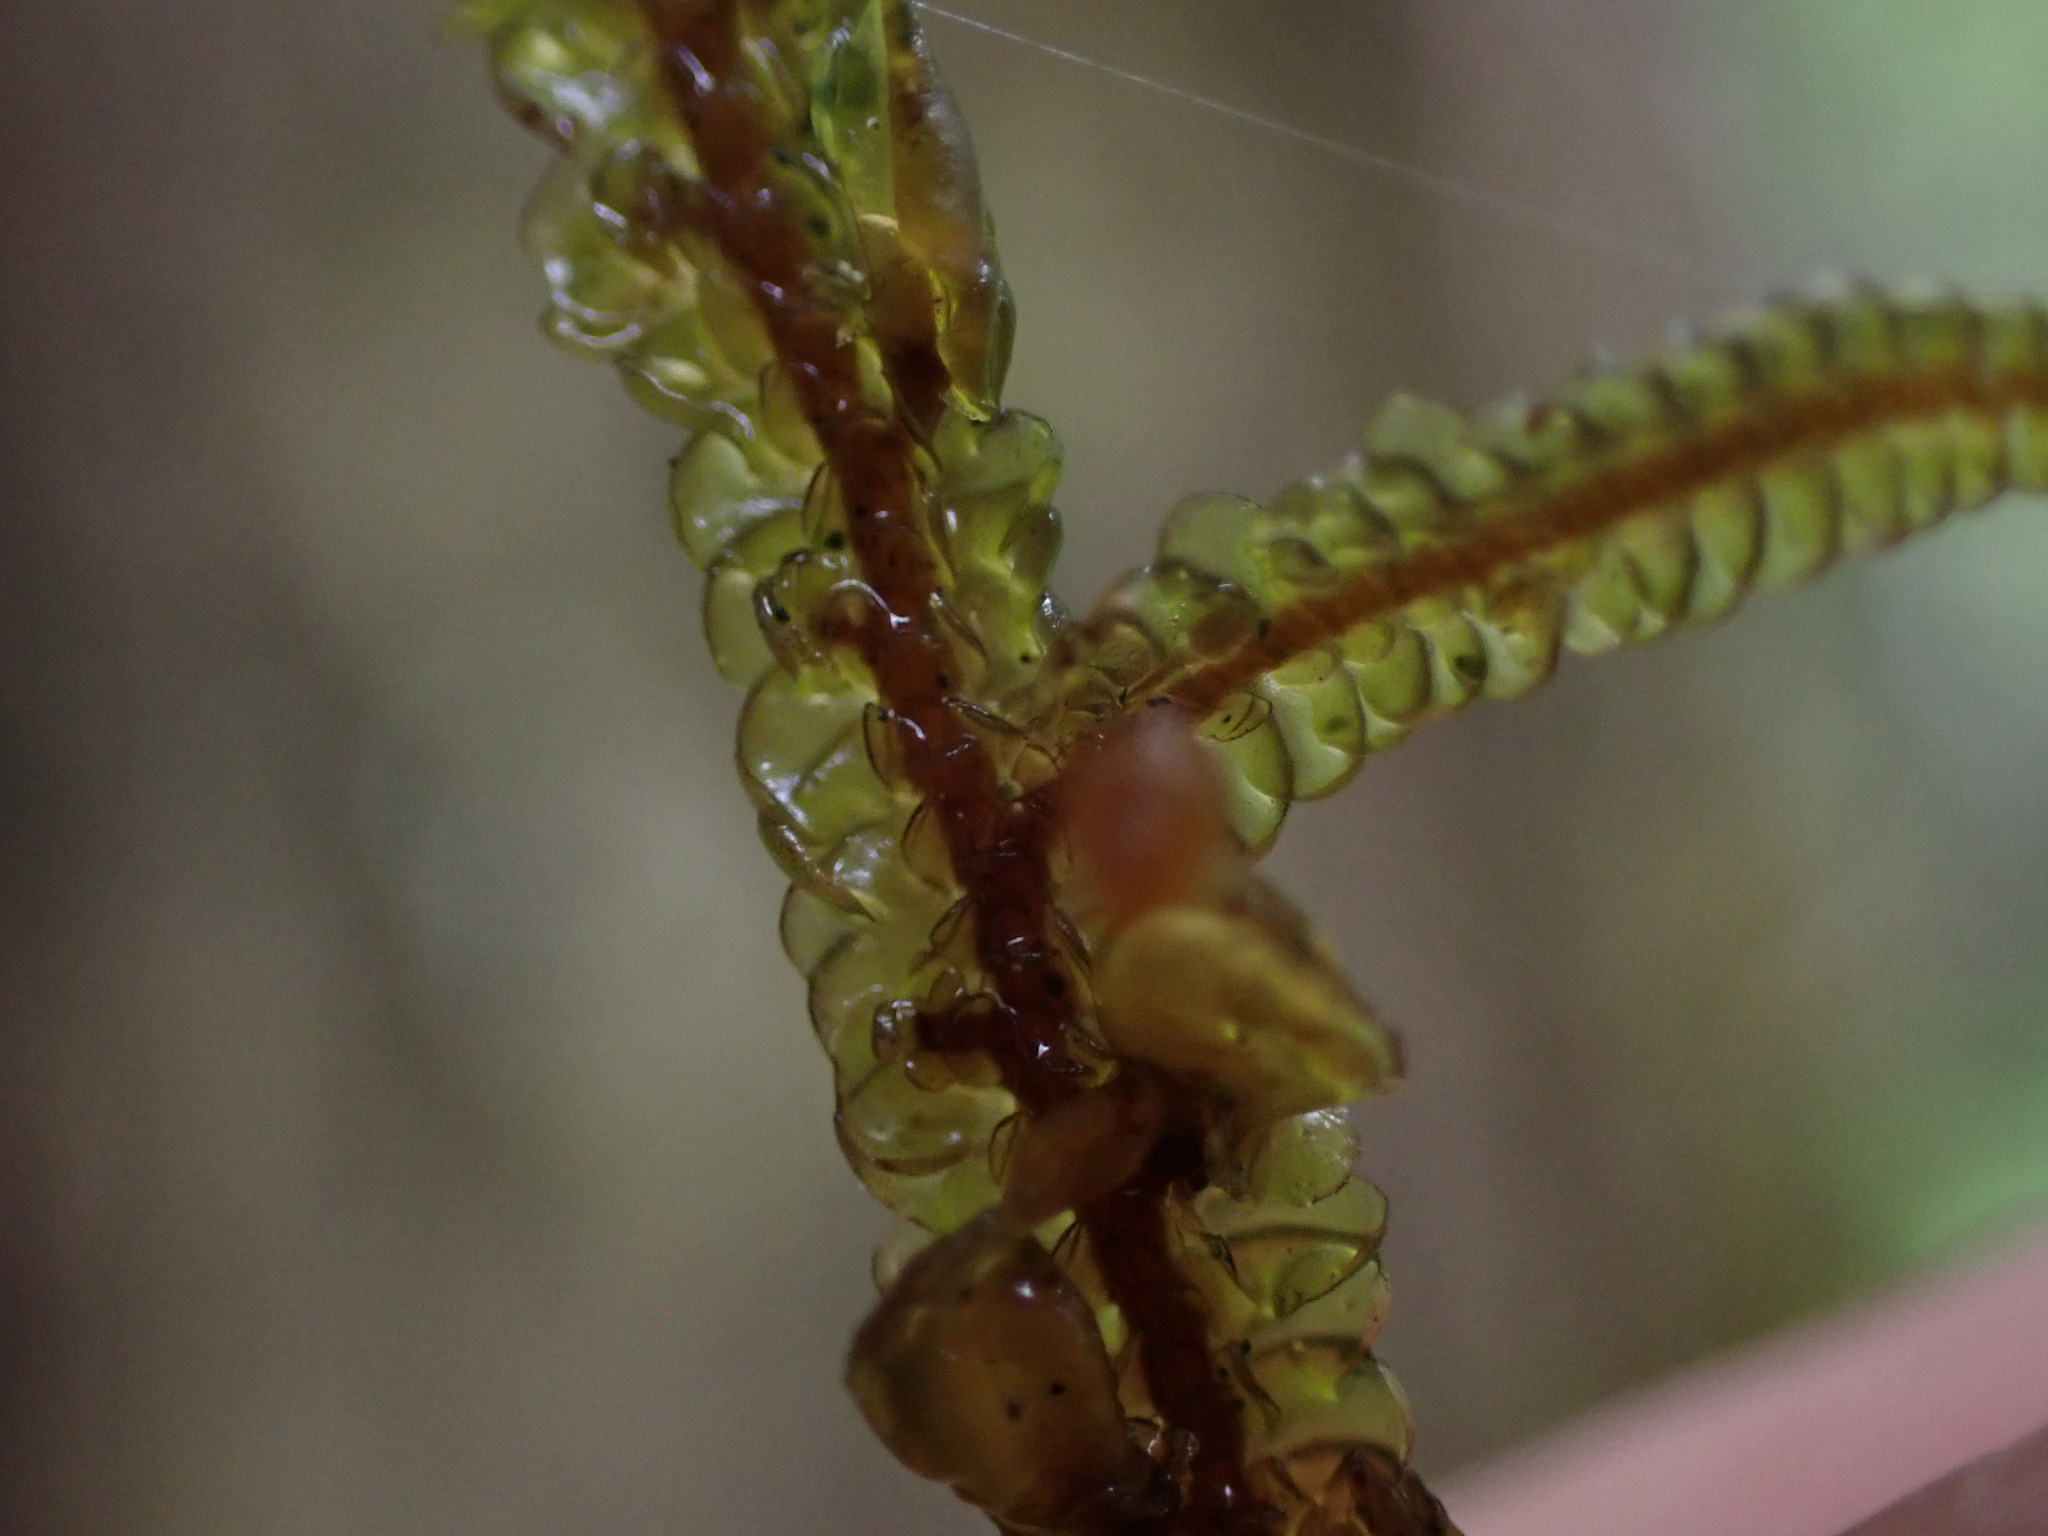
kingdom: Plantae
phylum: Marchantiophyta
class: Jungermanniopsida
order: Porellales
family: Porellaceae
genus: Porella
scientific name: Porella navicularis
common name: Tree ruffle liverwort
